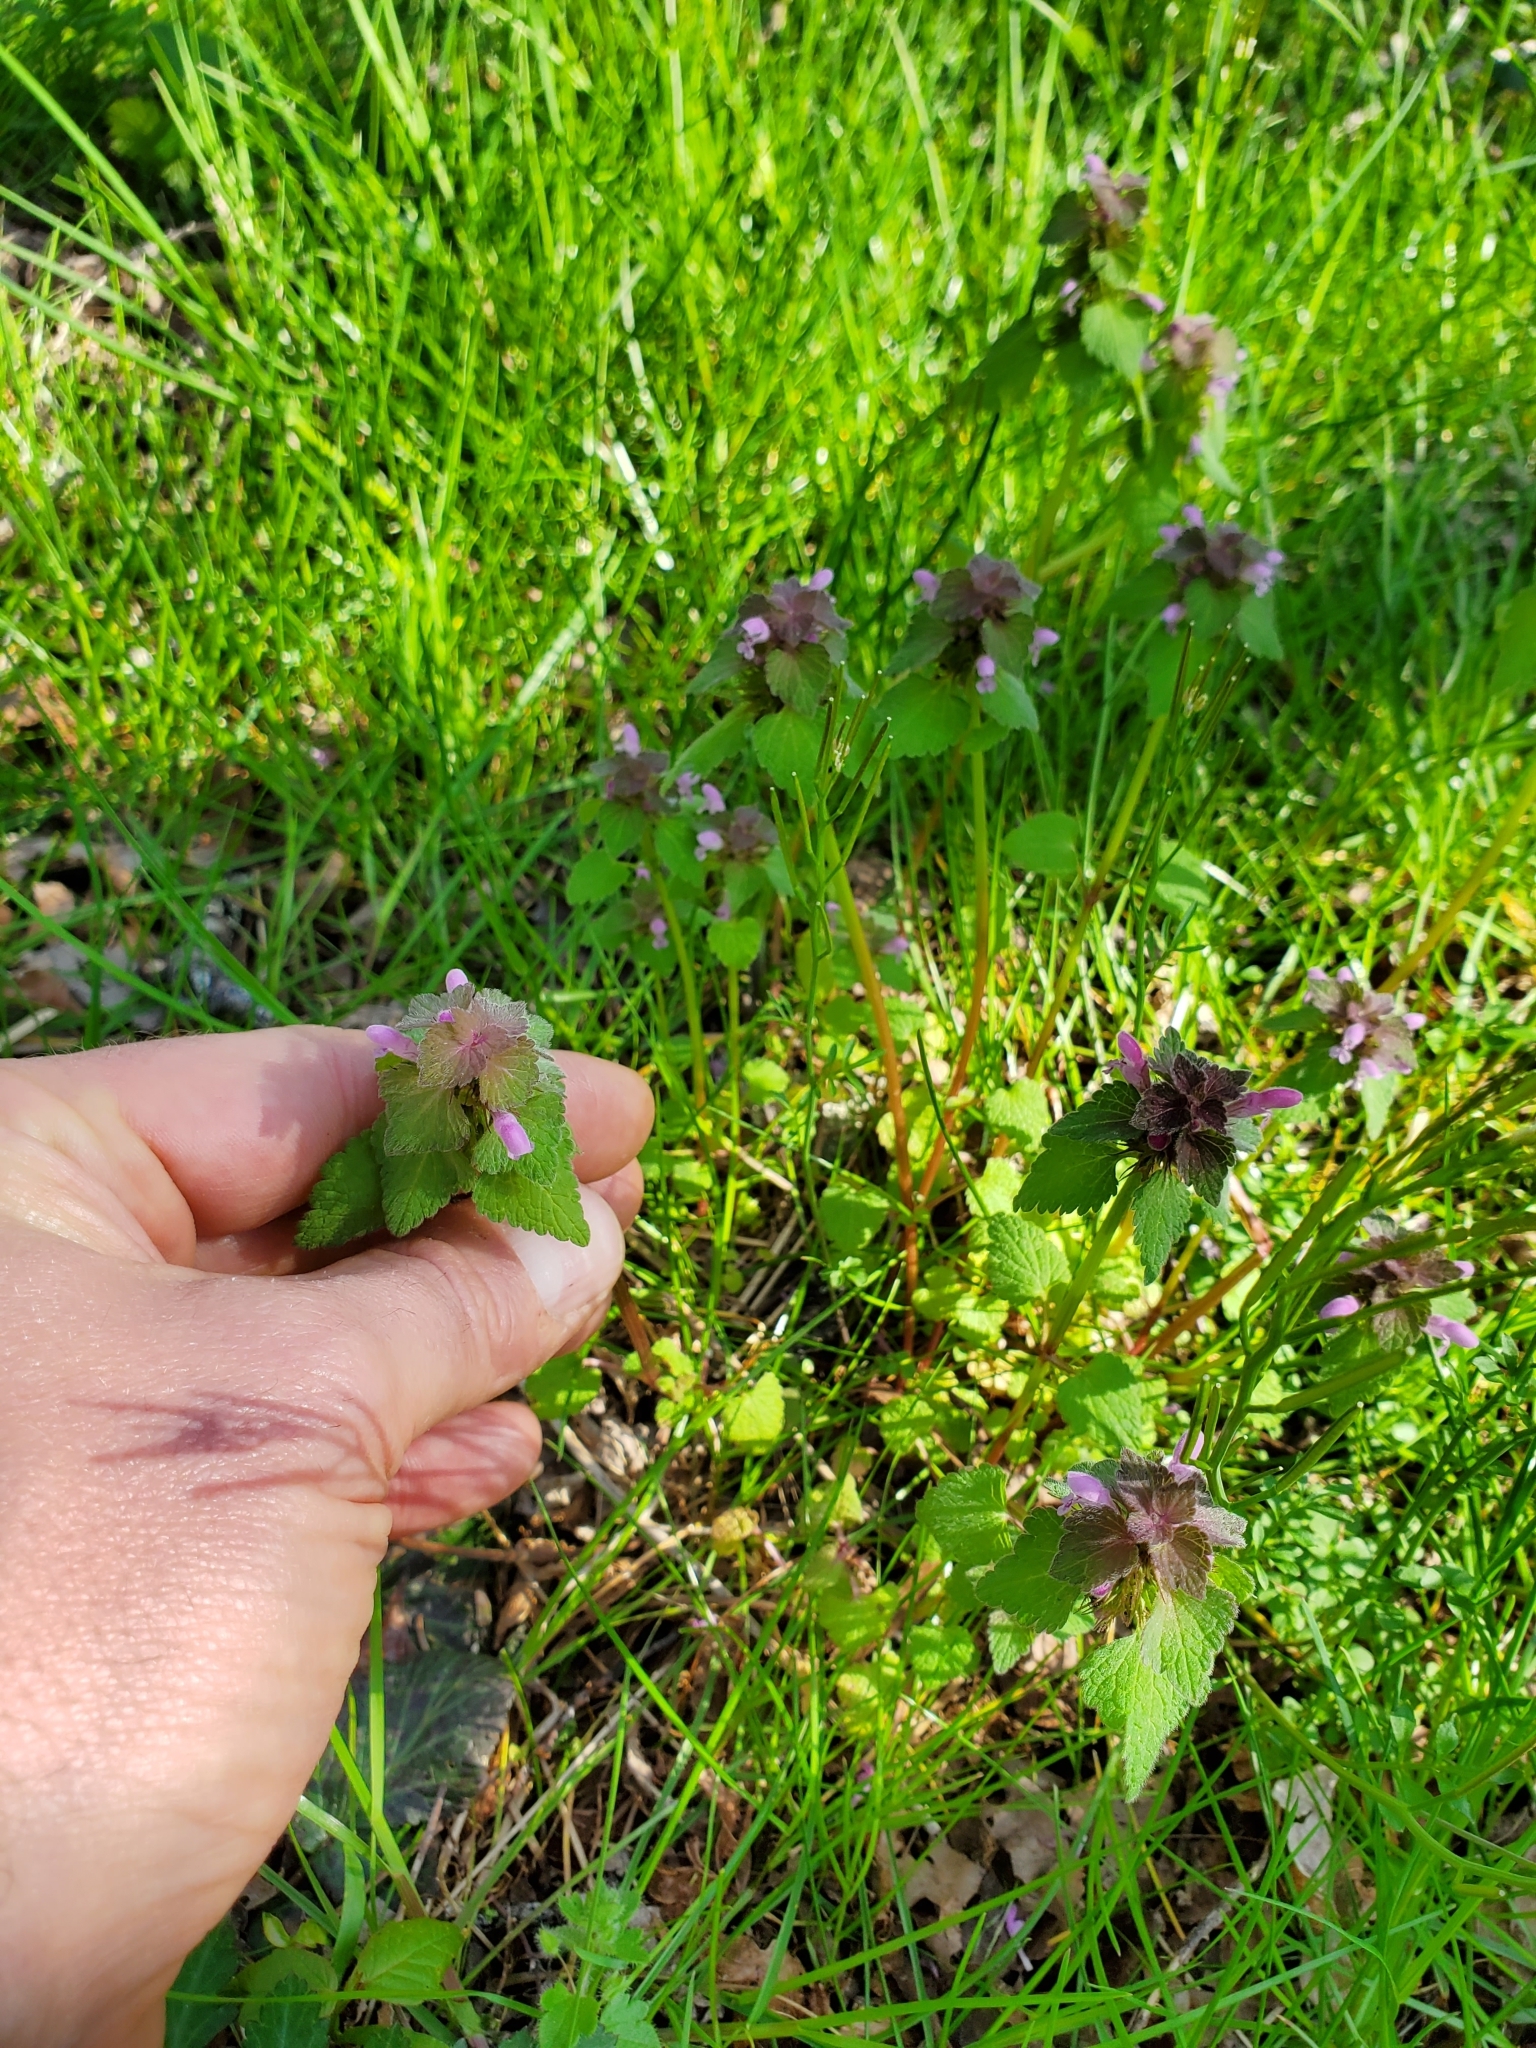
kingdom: Plantae
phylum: Tracheophyta
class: Magnoliopsida
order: Lamiales
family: Lamiaceae
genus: Lamium
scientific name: Lamium purpureum
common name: Red dead-nettle
